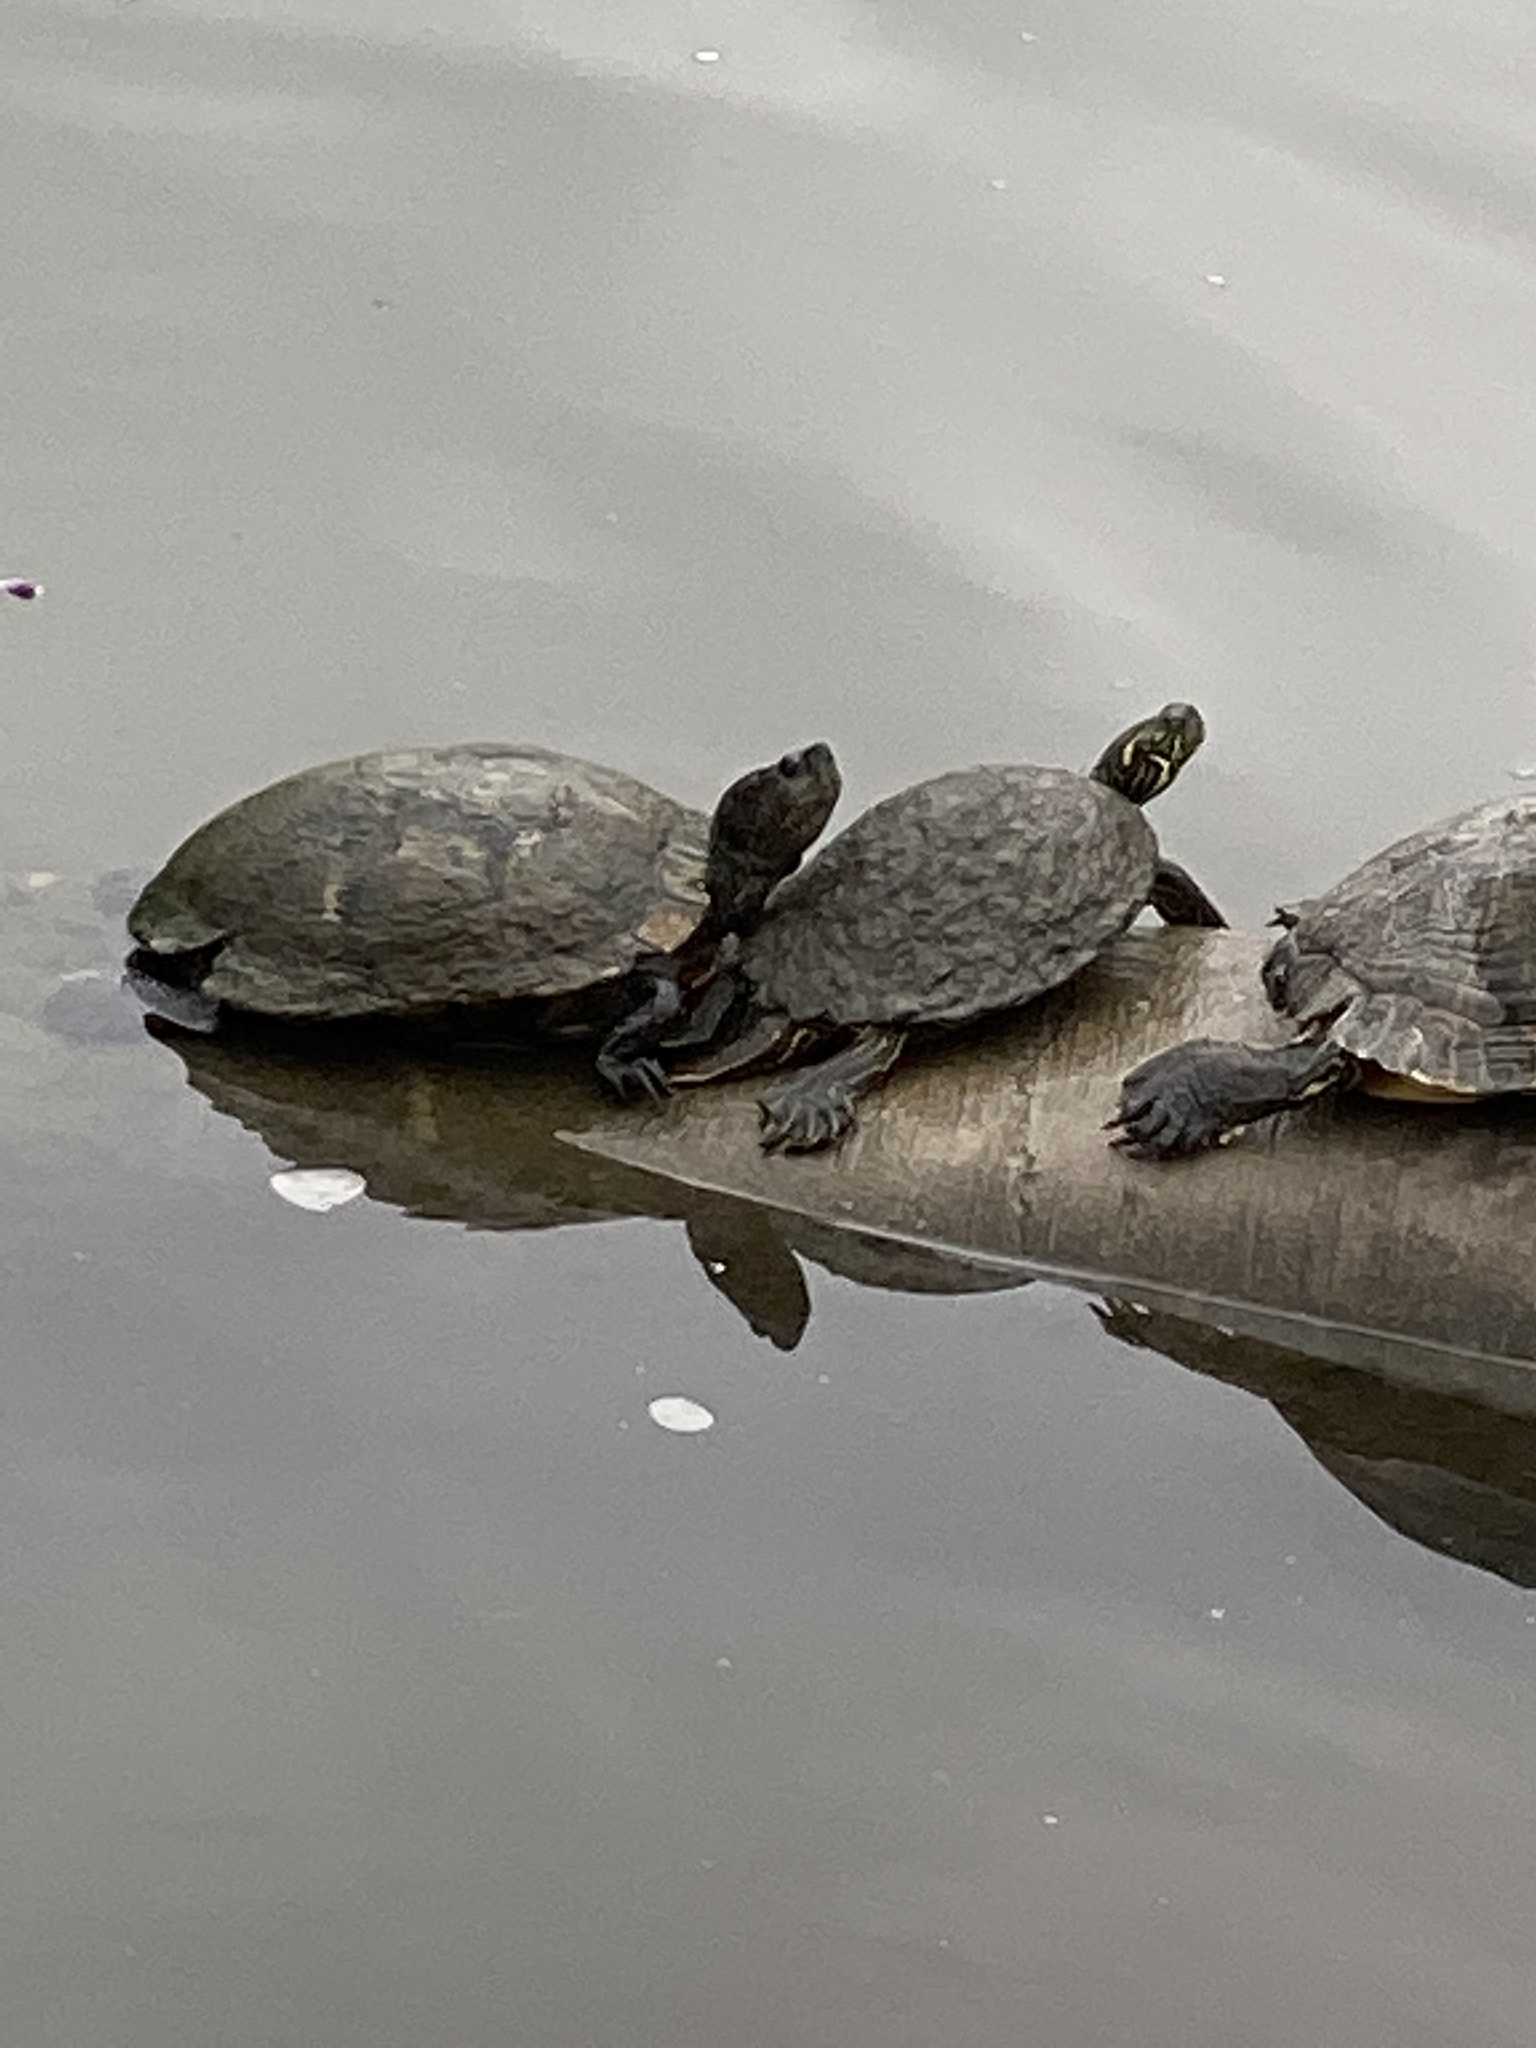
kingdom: Animalia
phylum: Chordata
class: Testudines
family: Emydidae
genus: Trachemys
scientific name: Trachemys scripta
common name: Slider
